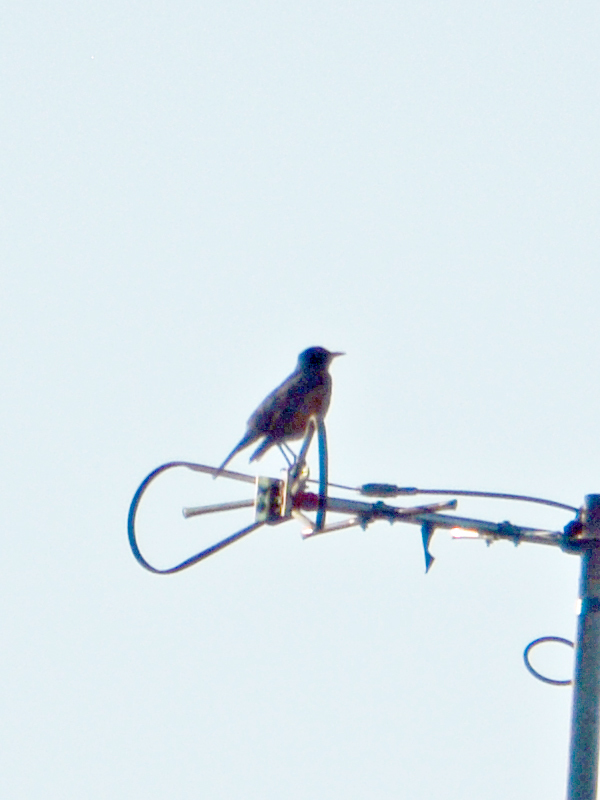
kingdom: Animalia
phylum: Chordata
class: Aves
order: Passeriformes
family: Turdidae
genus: Turdus
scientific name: Turdus migratorius
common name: American robin
